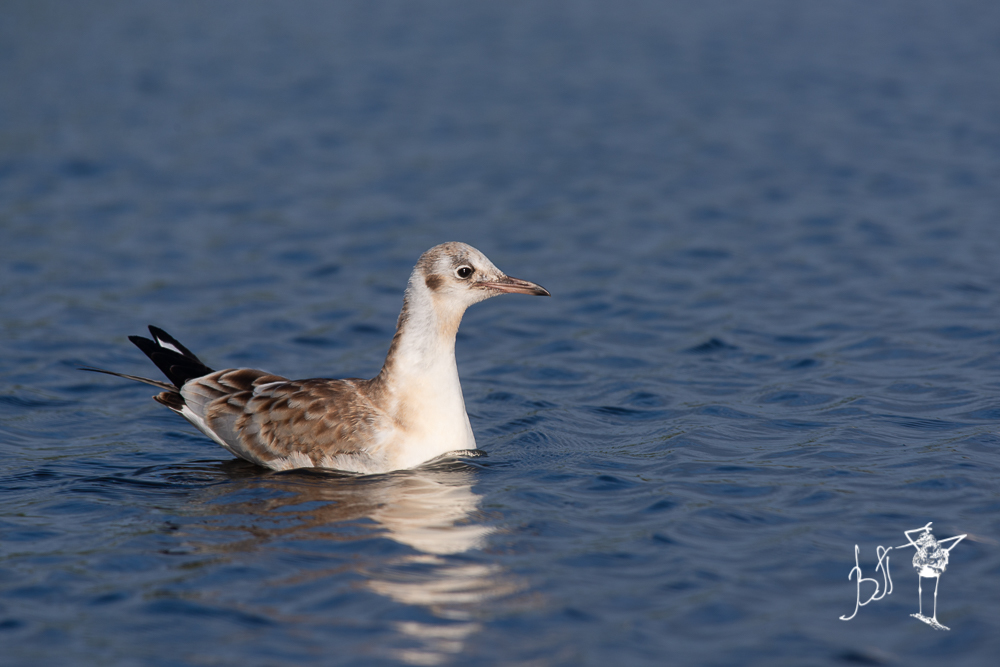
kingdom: Animalia
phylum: Chordata
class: Aves
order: Charadriiformes
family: Laridae
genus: Chroicocephalus
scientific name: Chroicocephalus ridibundus
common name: Black-headed gull
